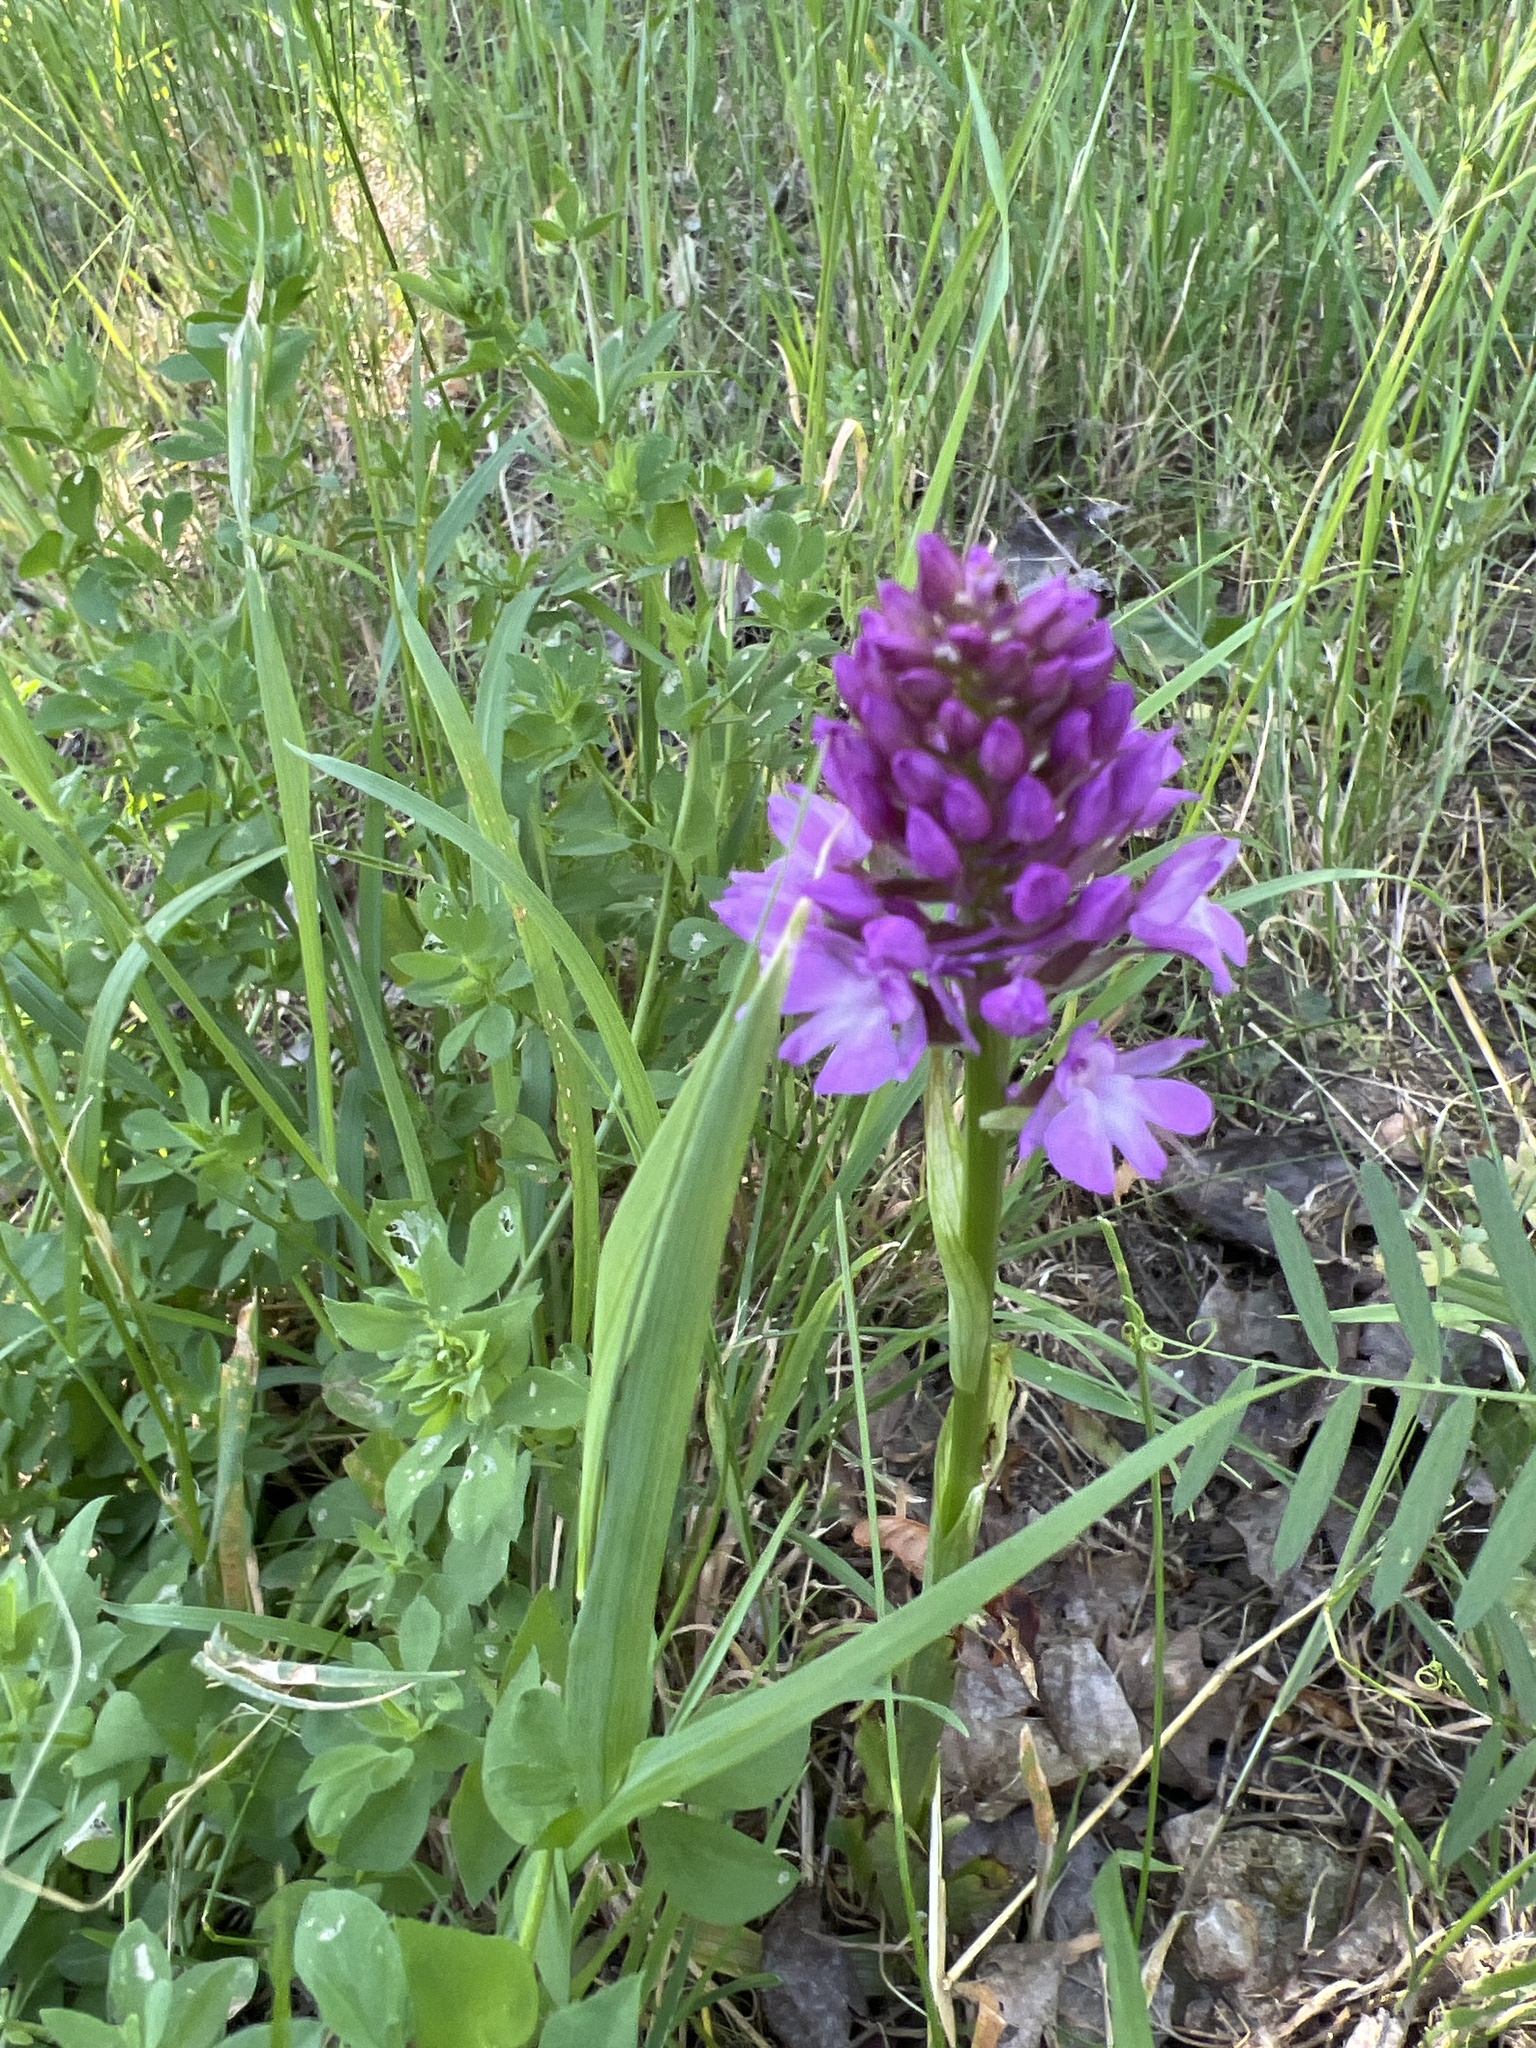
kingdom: Plantae
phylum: Tracheophyta
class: Liliopsida
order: Asparagales
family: Orchidaceae
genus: Anacamptis
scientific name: Anacamptis pyramidalis
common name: Pyramidal orchid
